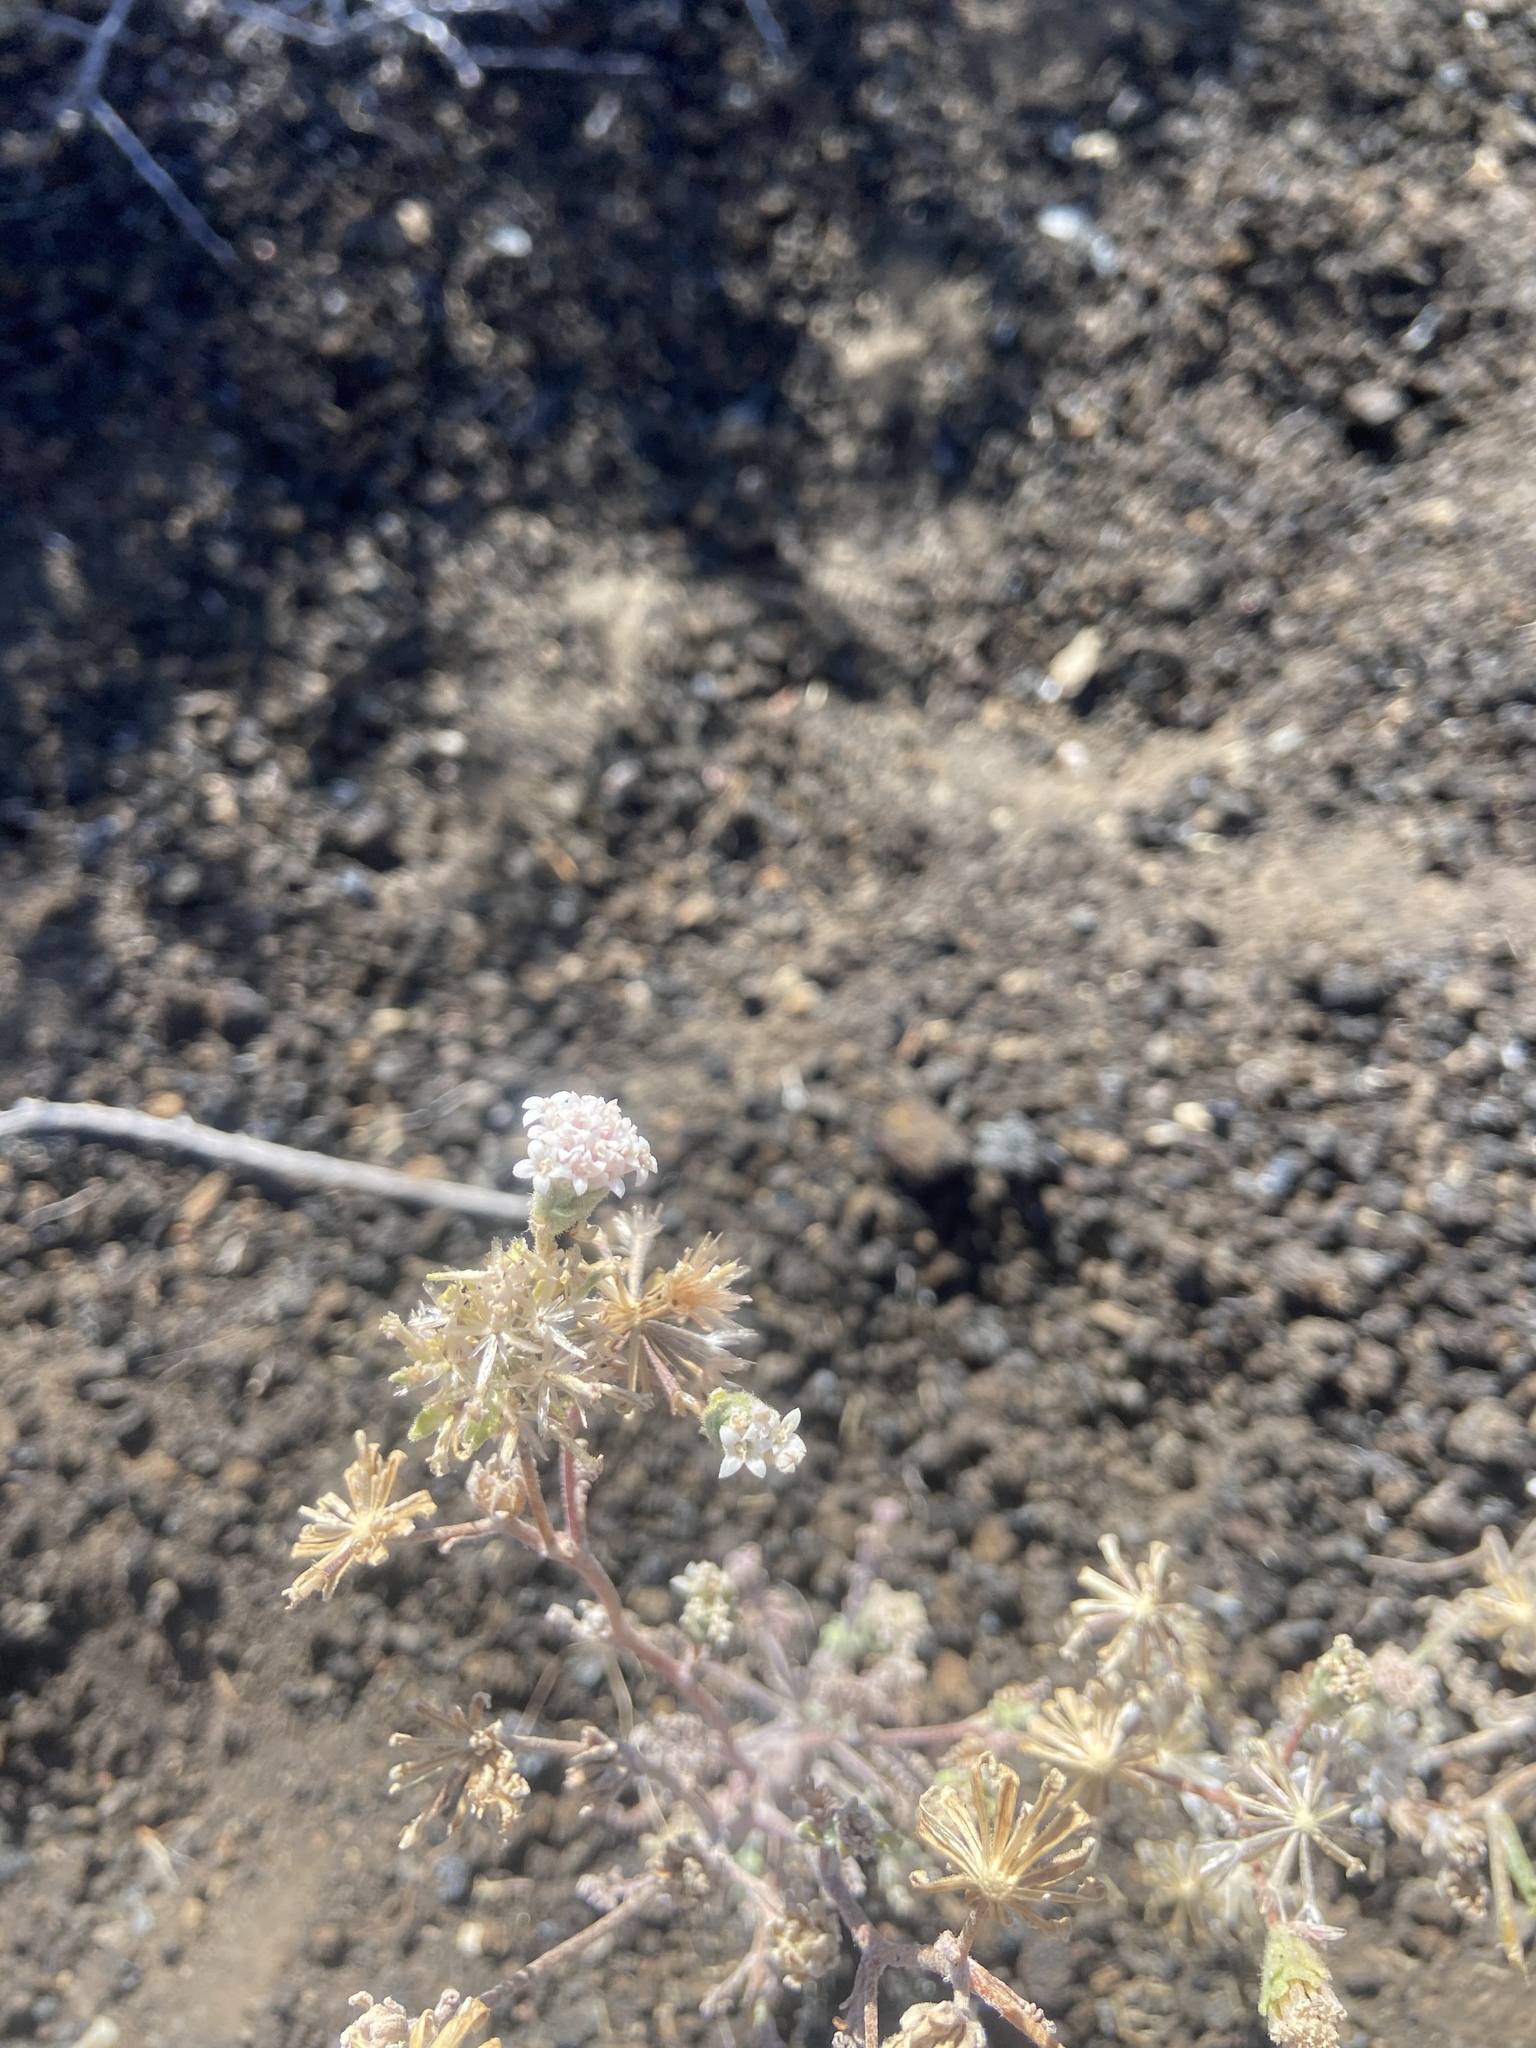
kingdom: Plantae
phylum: Tracheophyta
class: Magnoliopsida
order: Asterales
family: Asteraceae
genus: Chaenactis
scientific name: Chaenactis douglasii
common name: Hoary pincushion
